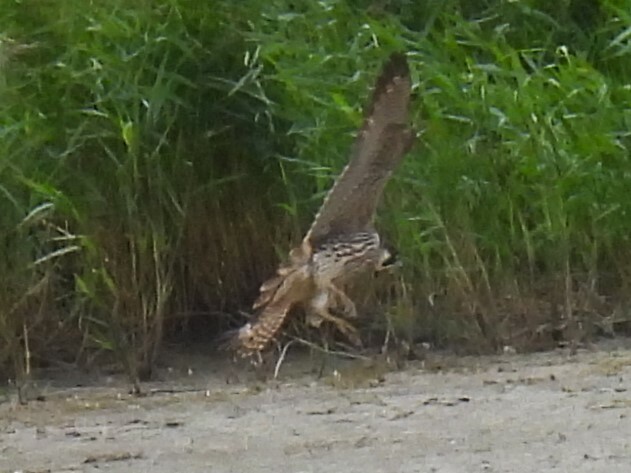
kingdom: Animalia
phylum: Chordata
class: Aves
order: Falconiformes
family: Falconidae
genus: Falco
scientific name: Falco peregrinus
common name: Peregrine falcon
